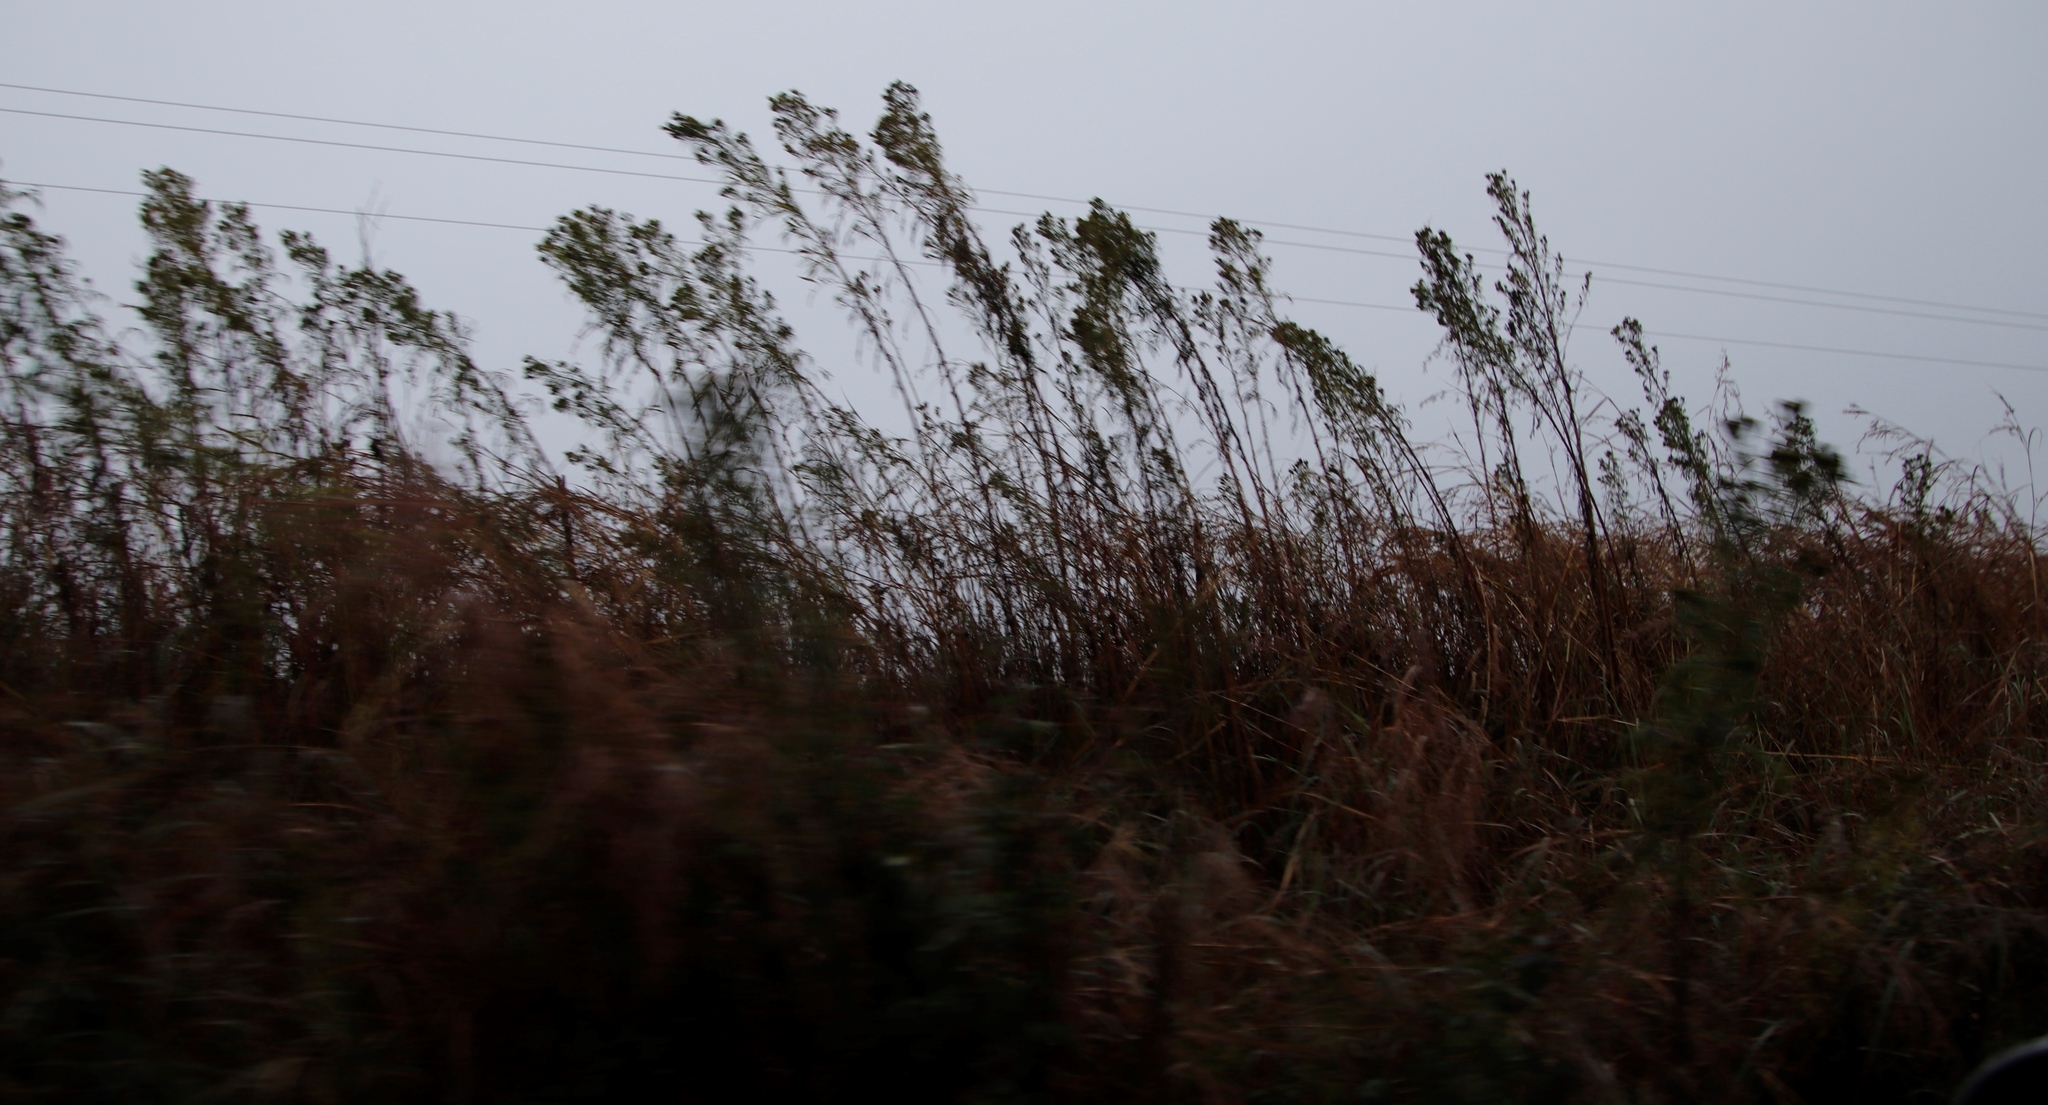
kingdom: Plantae
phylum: Tracheophyta
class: Magnoliopsida
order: Asterales
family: Asteraceae
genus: Tagetes
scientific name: Tagetes minuta
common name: Muster john henry
